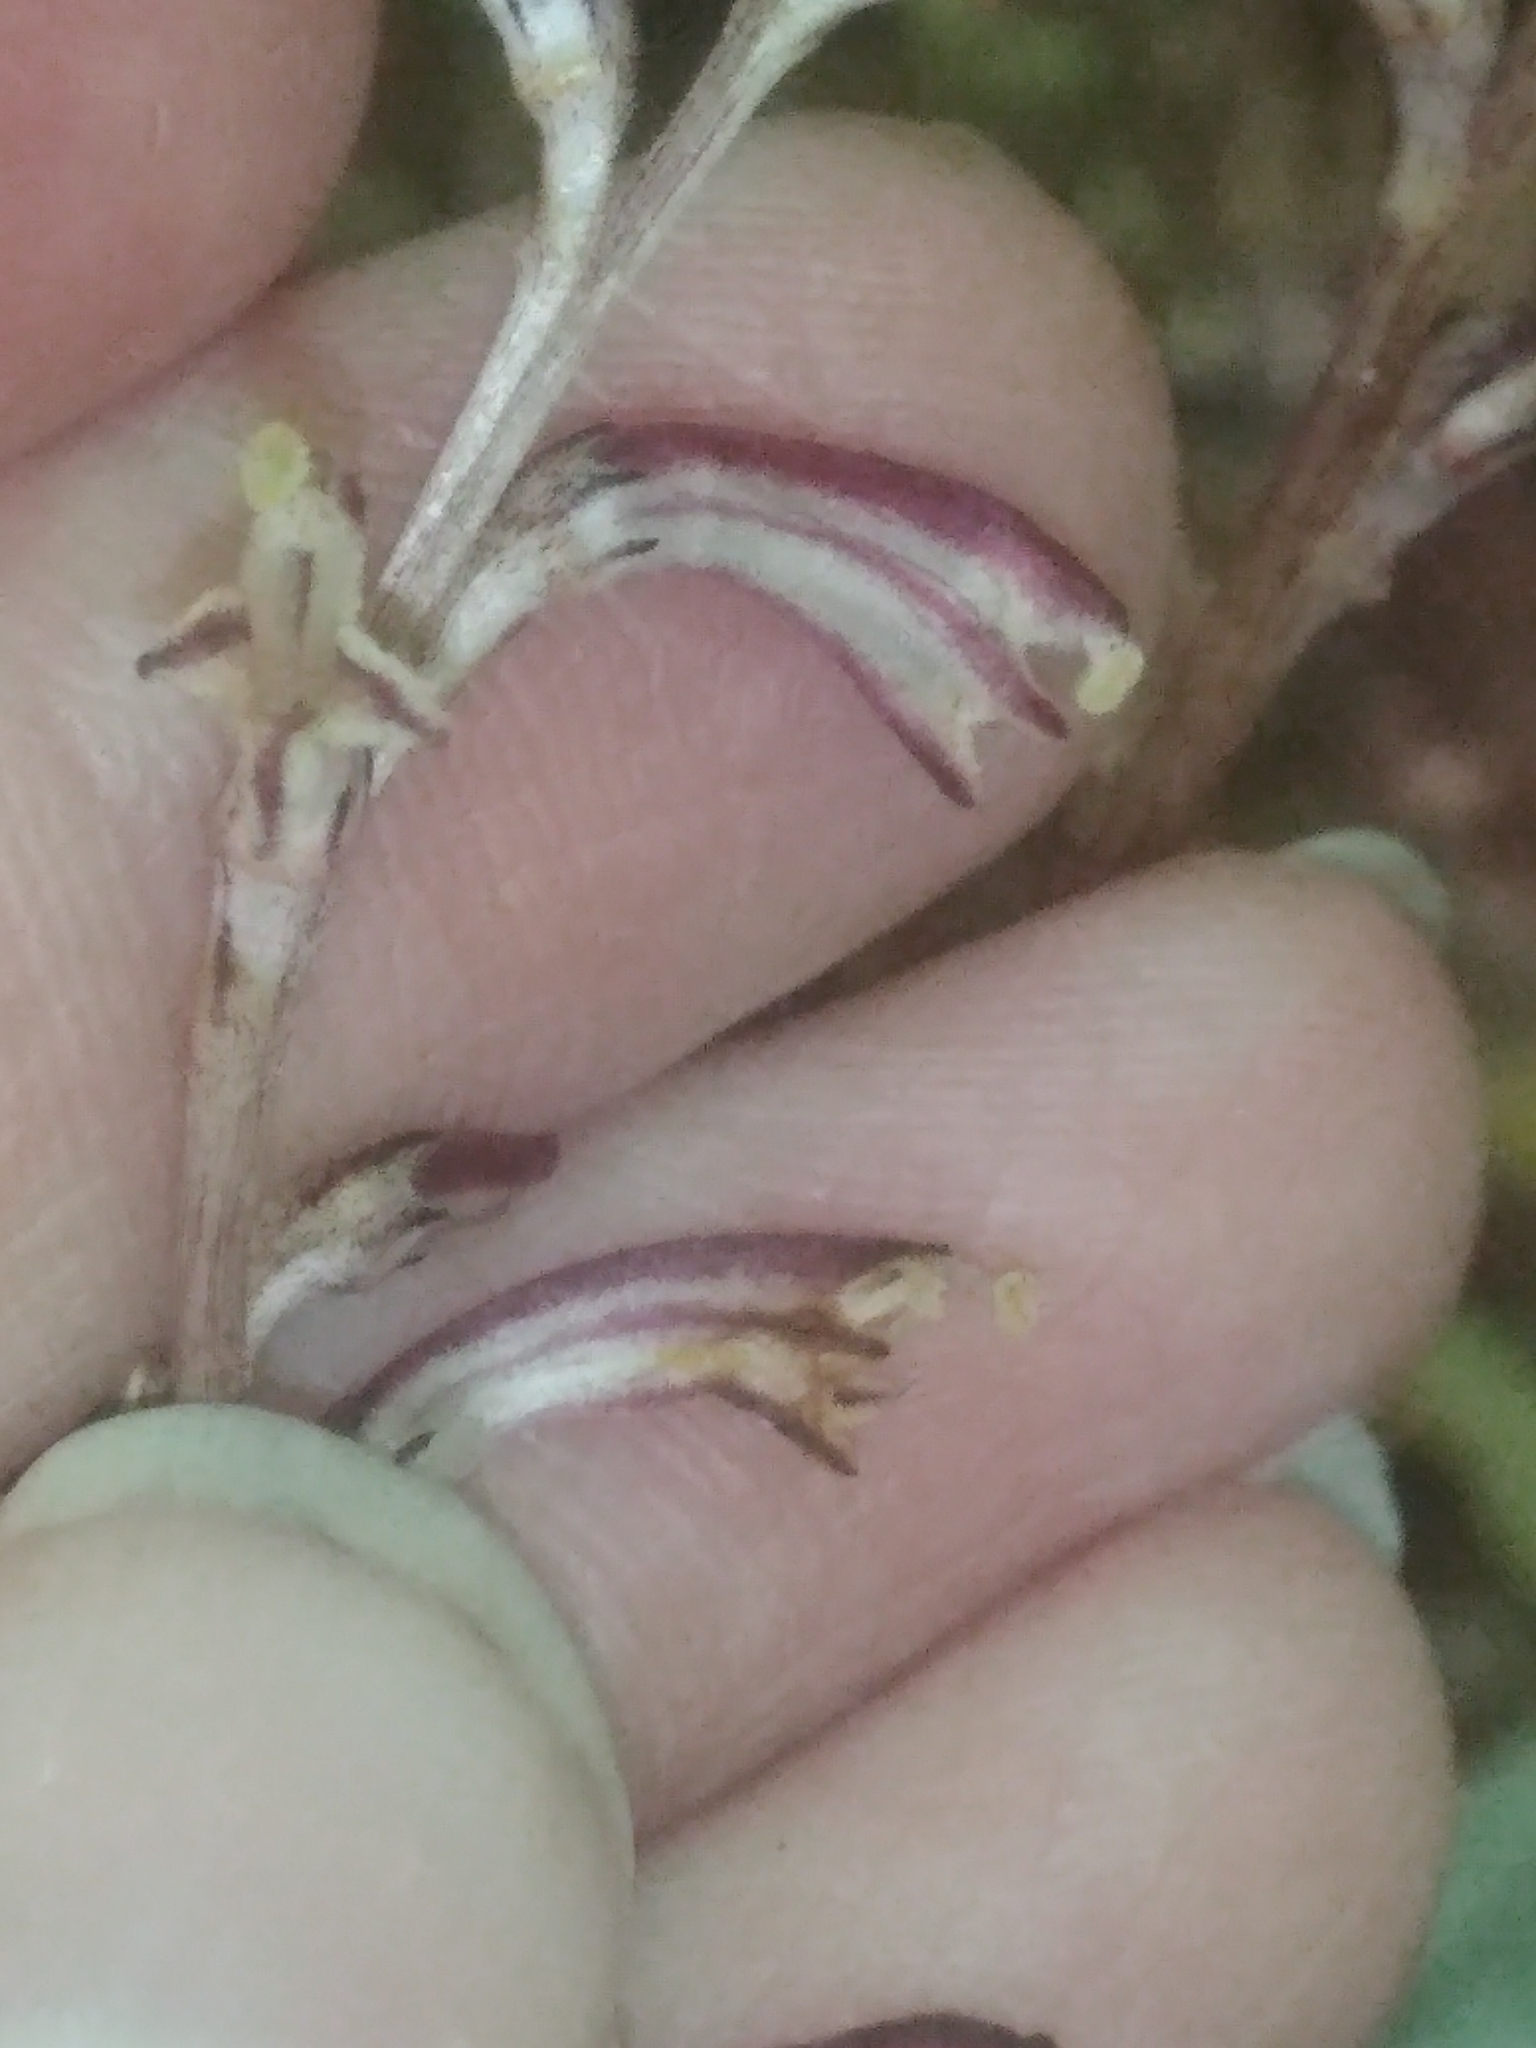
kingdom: Plantae
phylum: Tracheophyta
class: Magnoliopsida
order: Lamiales
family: Orobanchaceae
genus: Epifagus
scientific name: Epifagus virginiana
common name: Beechdrops
